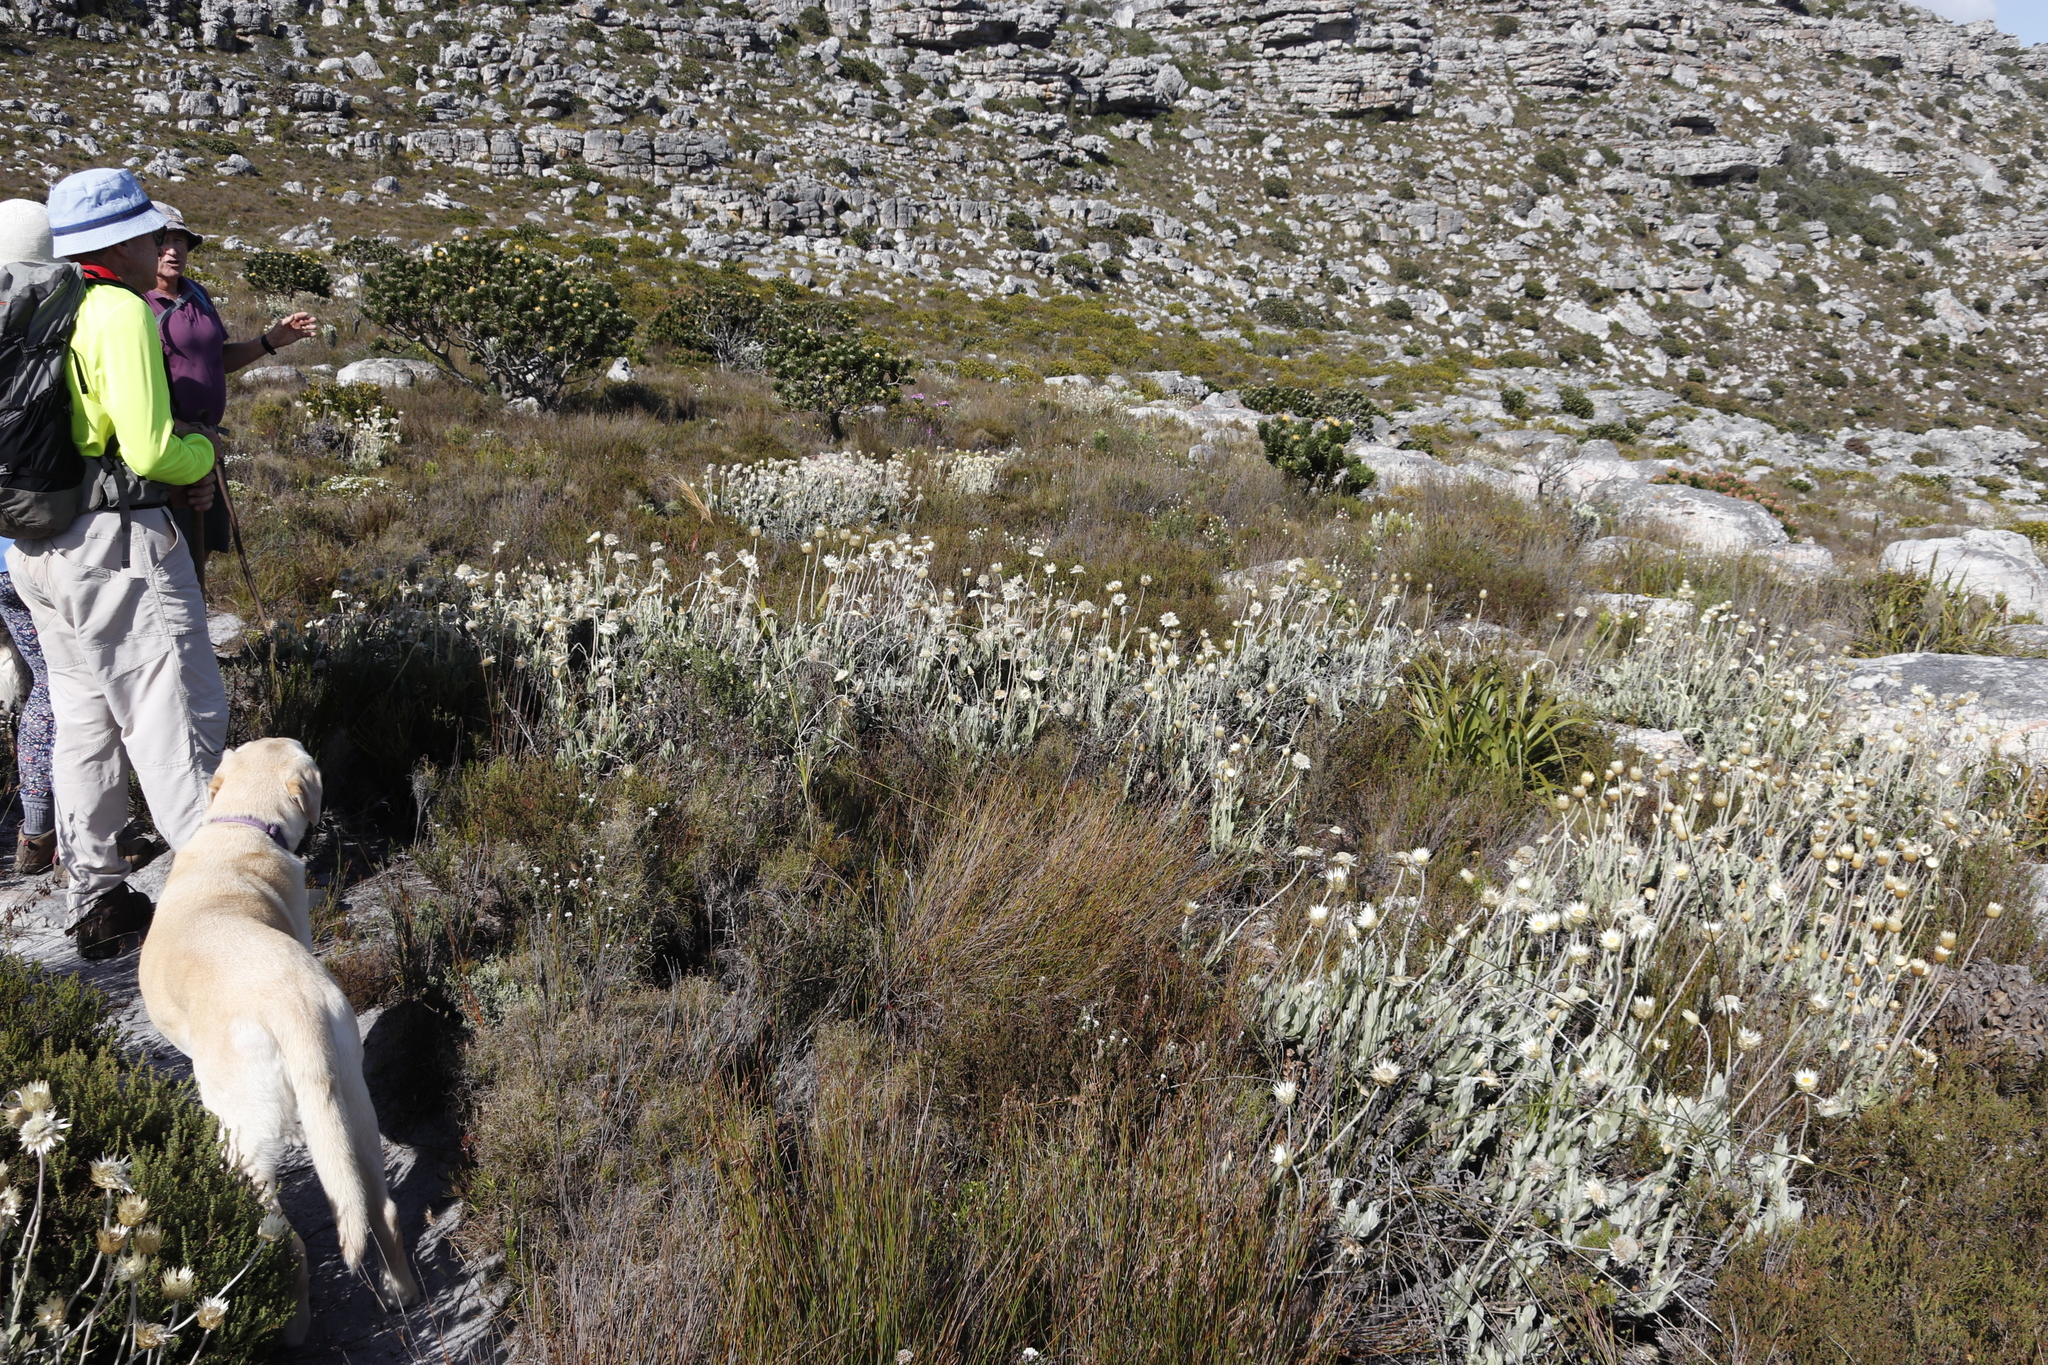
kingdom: Plantae
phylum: Tracheophyta
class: Magnoliopsida
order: Asterales
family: Asteraceae
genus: Syncarpha
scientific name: Syncarpha speciosissima
